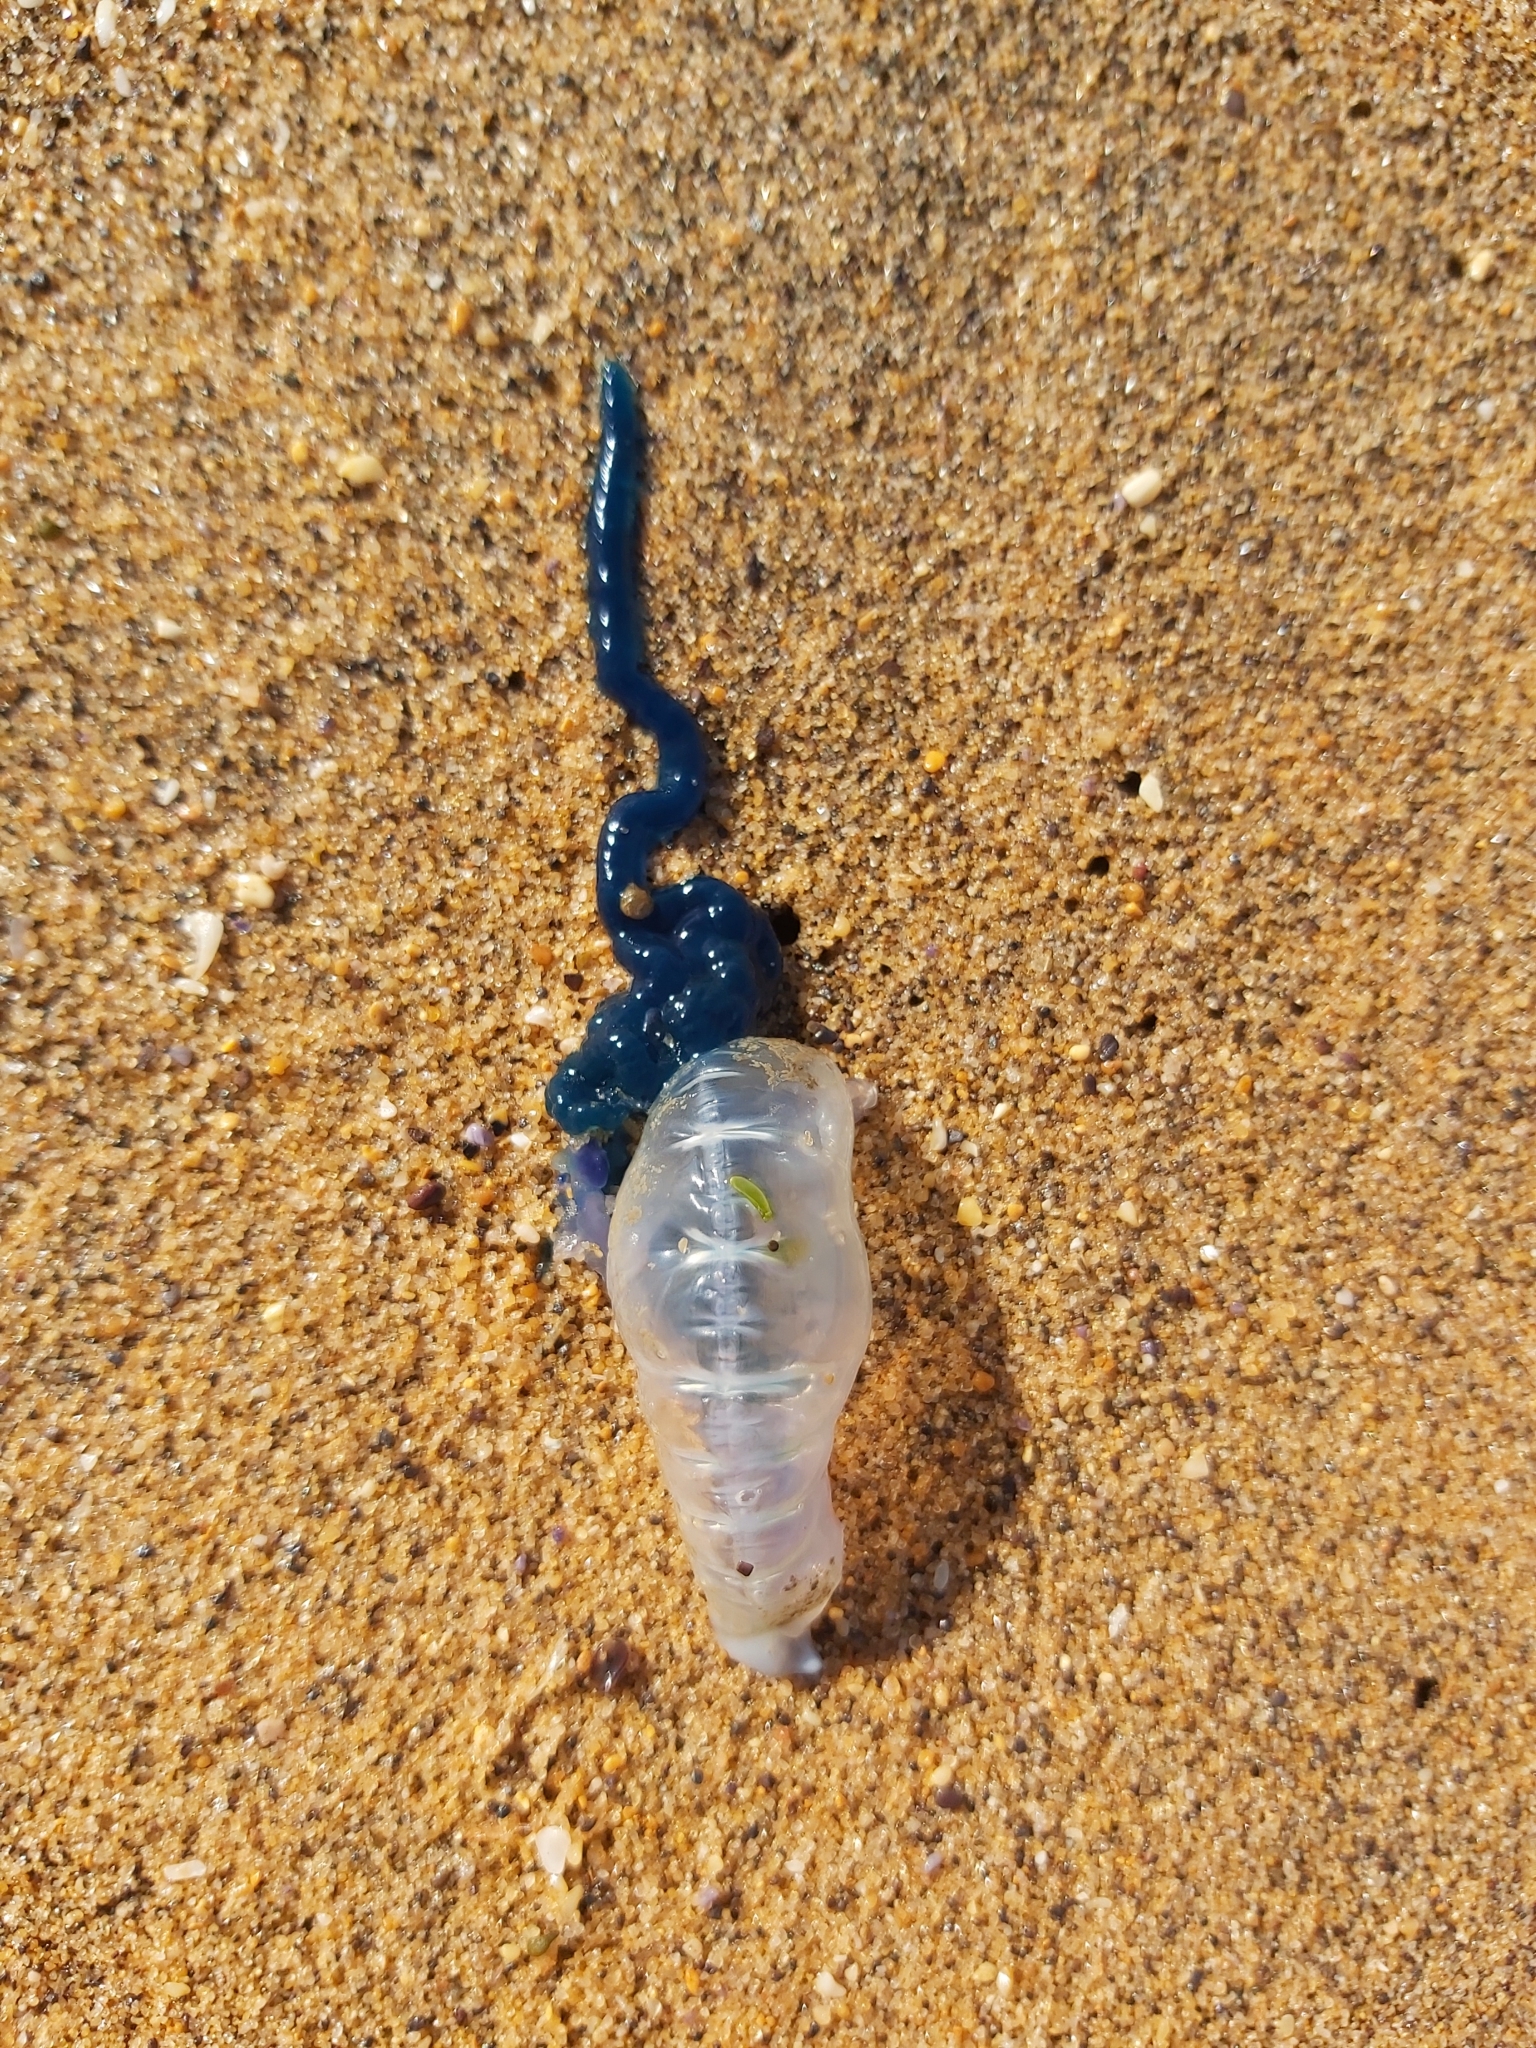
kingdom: Animalia
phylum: Cnidaria
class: Hydrozoa
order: Siphonophorae
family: Physaliidae
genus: Physalia
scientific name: Physalia physalis
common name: Portuguese man-of-war
